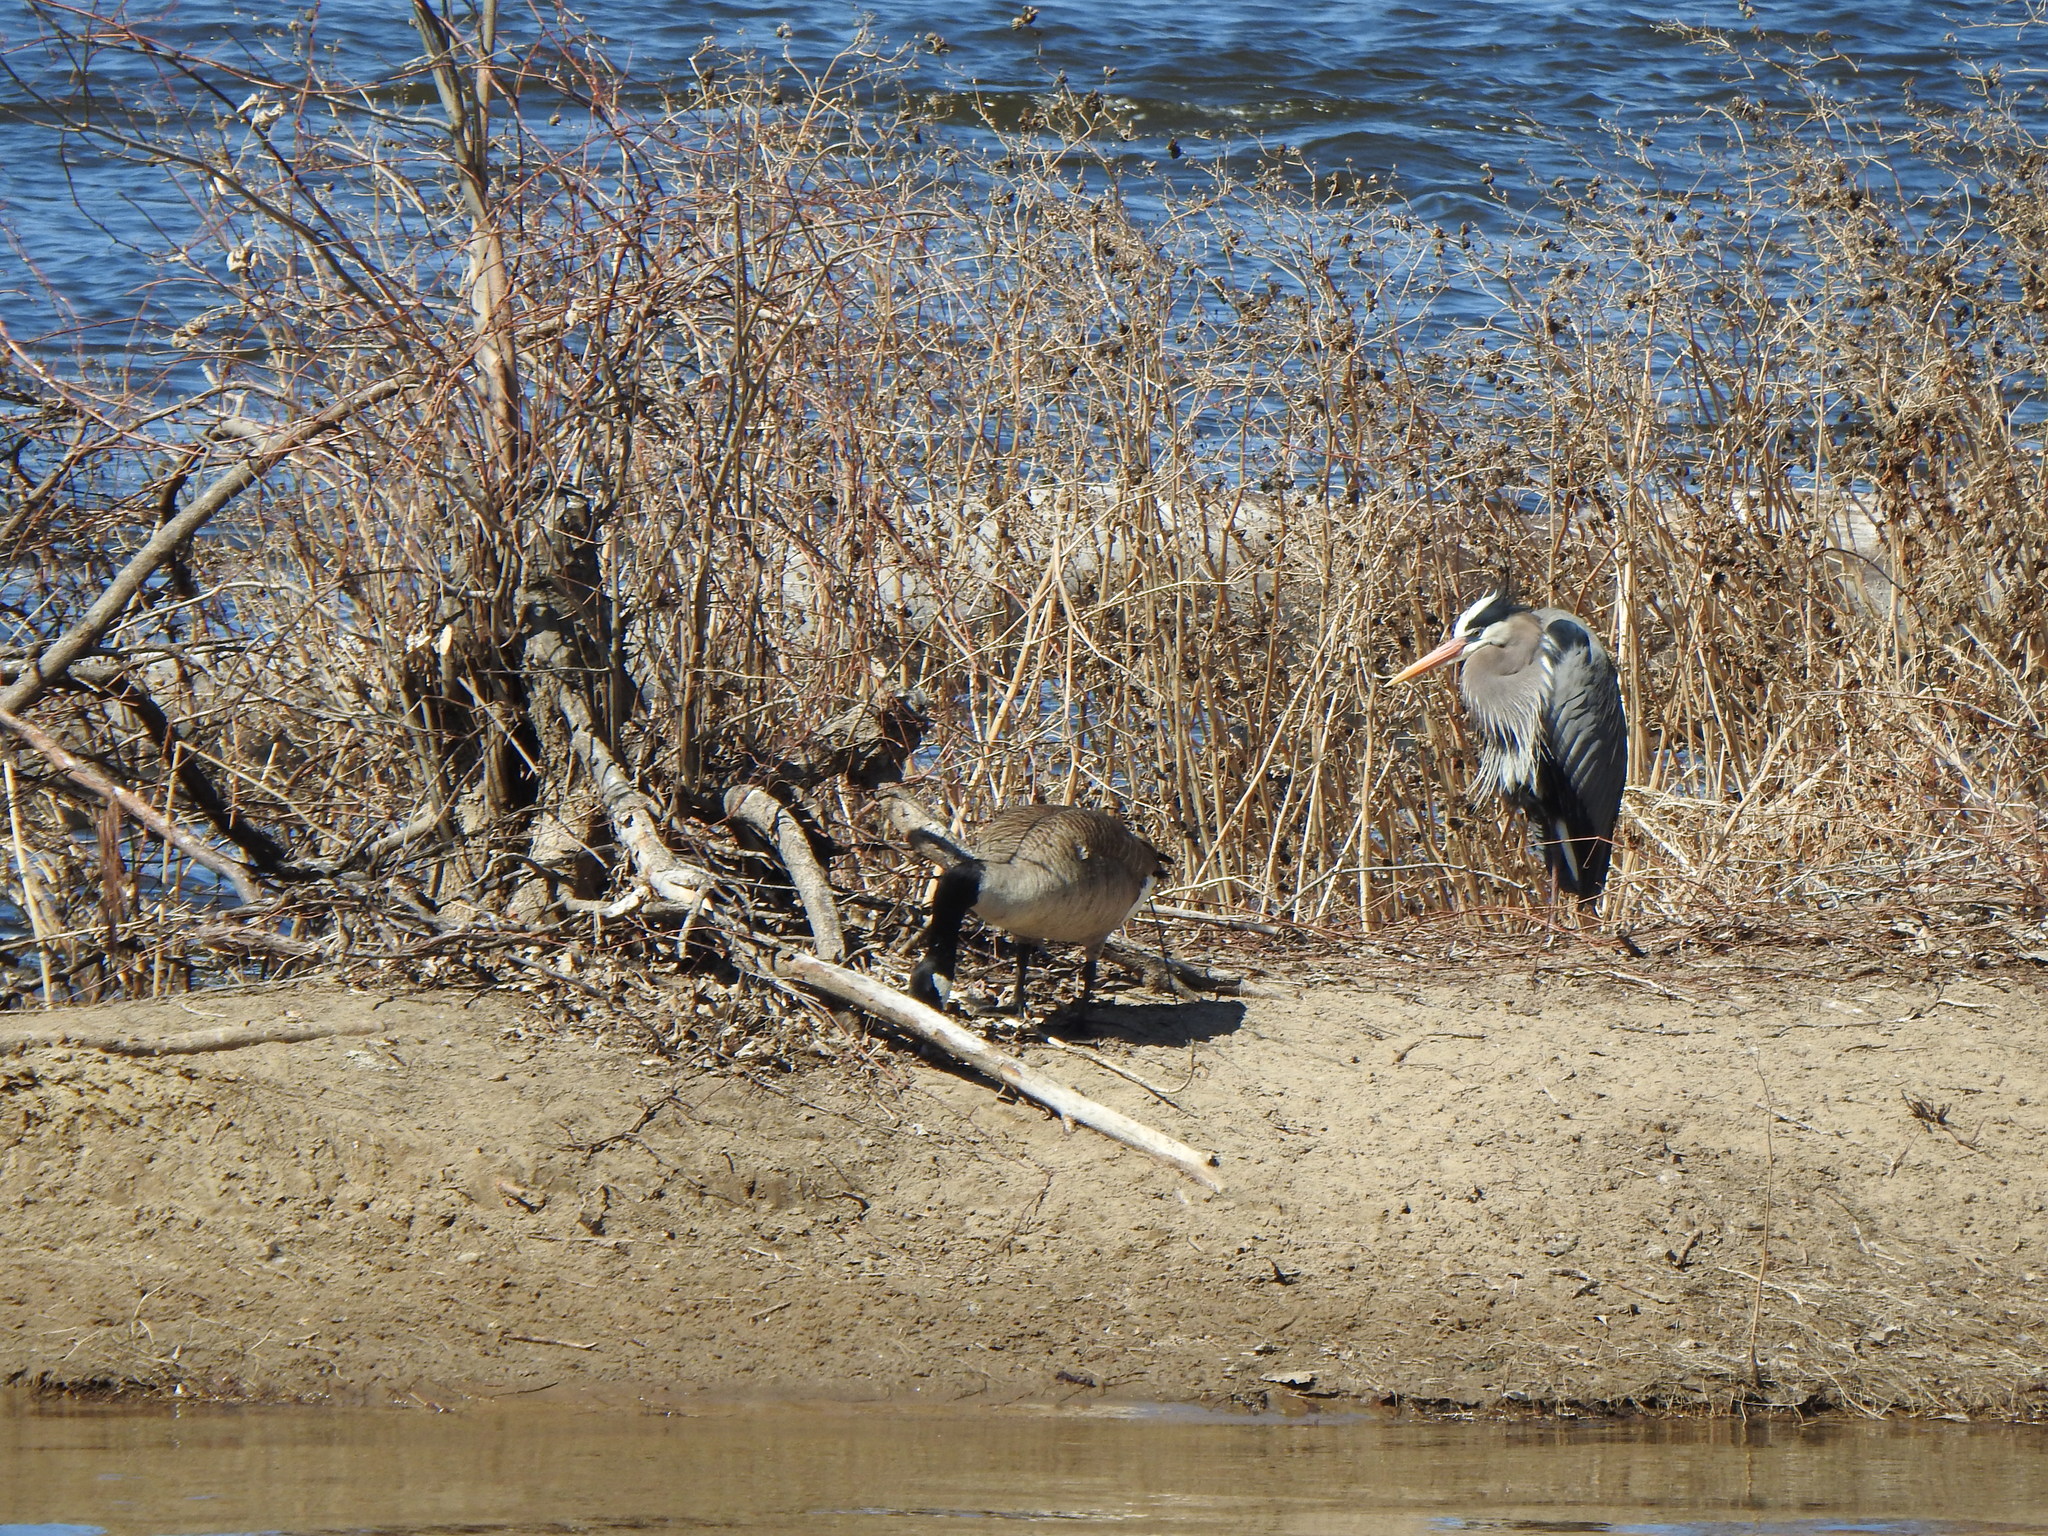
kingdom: Animalia
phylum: Chordata
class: Aves
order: Pelecaniformes
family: Ardeidae
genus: Ardea
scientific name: Ardea herodias
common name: Great blue heron
